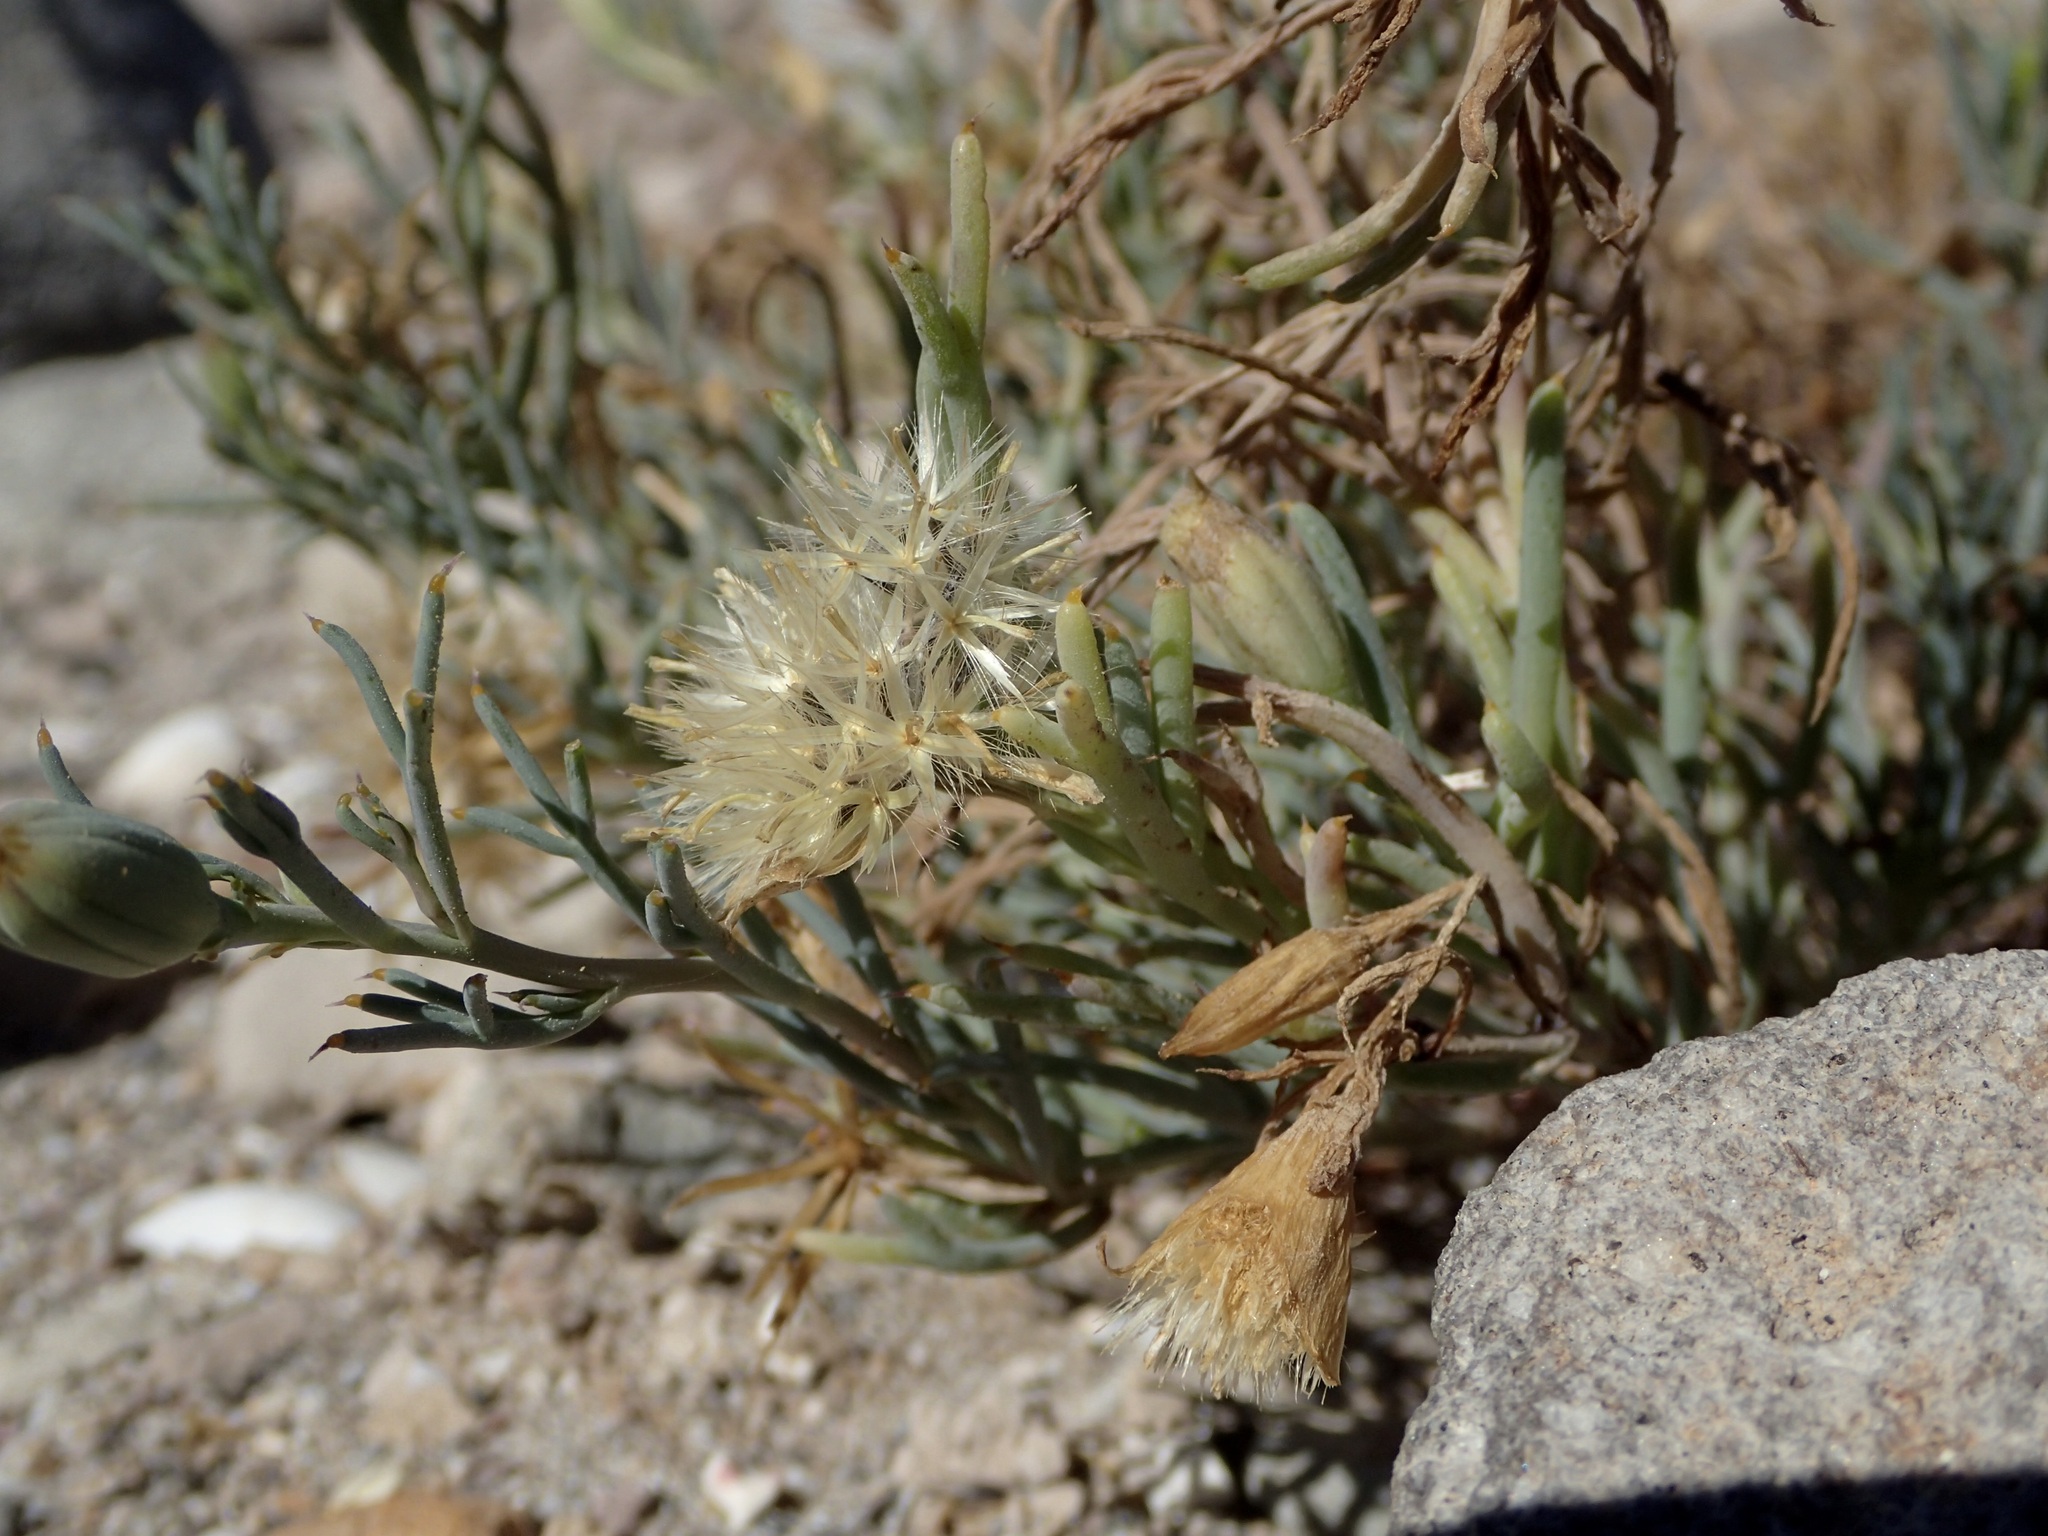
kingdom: Plantae
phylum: Tracheophyta
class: Magnoliopsida
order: Asterales
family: Asteraceae
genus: Nicolletia
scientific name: Nicolletia trifida
